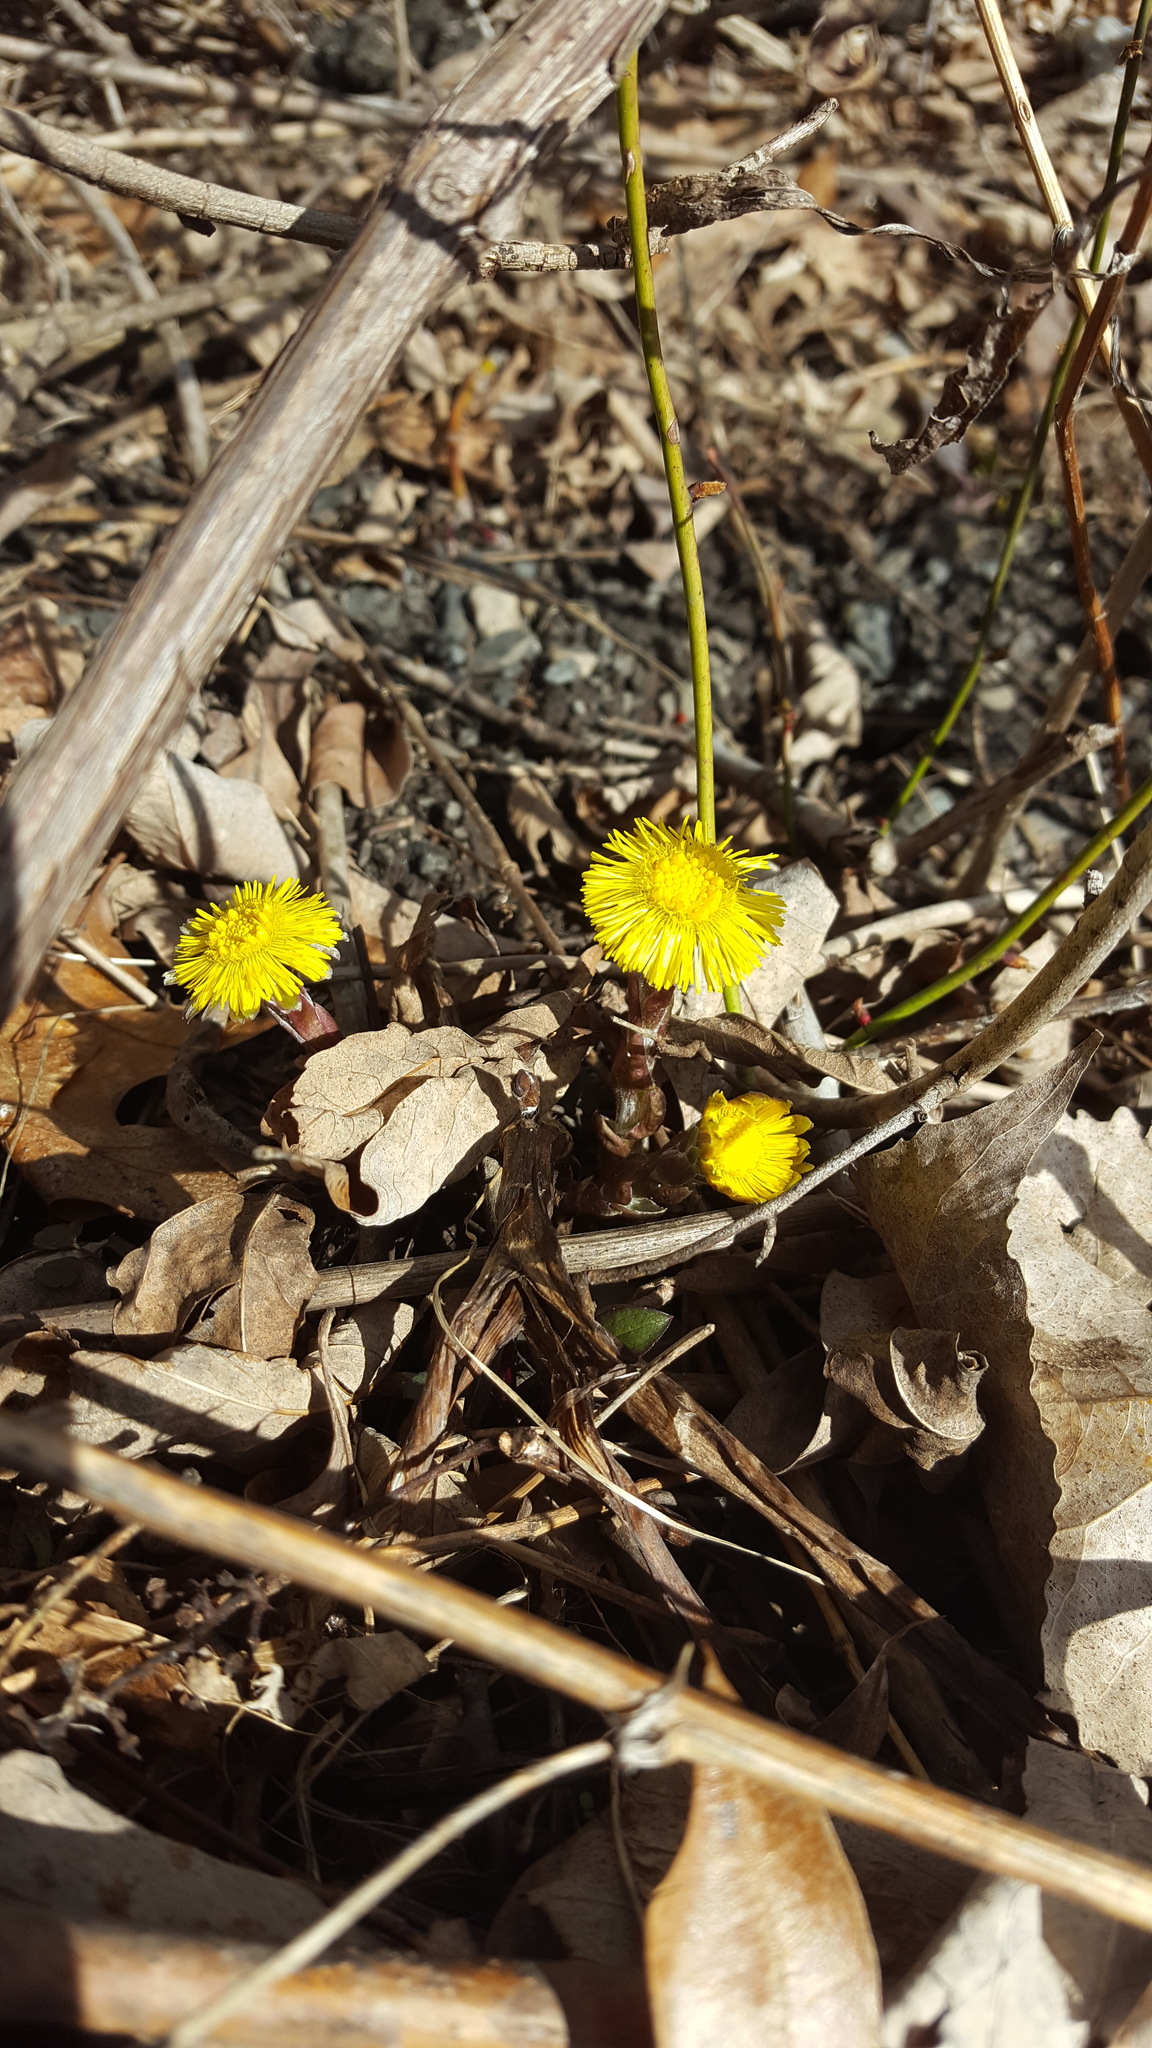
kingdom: Plantae
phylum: Tracheophyta
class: Magnoliopsida
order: Asterales
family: Asteraceae
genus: Tussilago
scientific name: Tussilago farfara
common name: Coltsfoot
